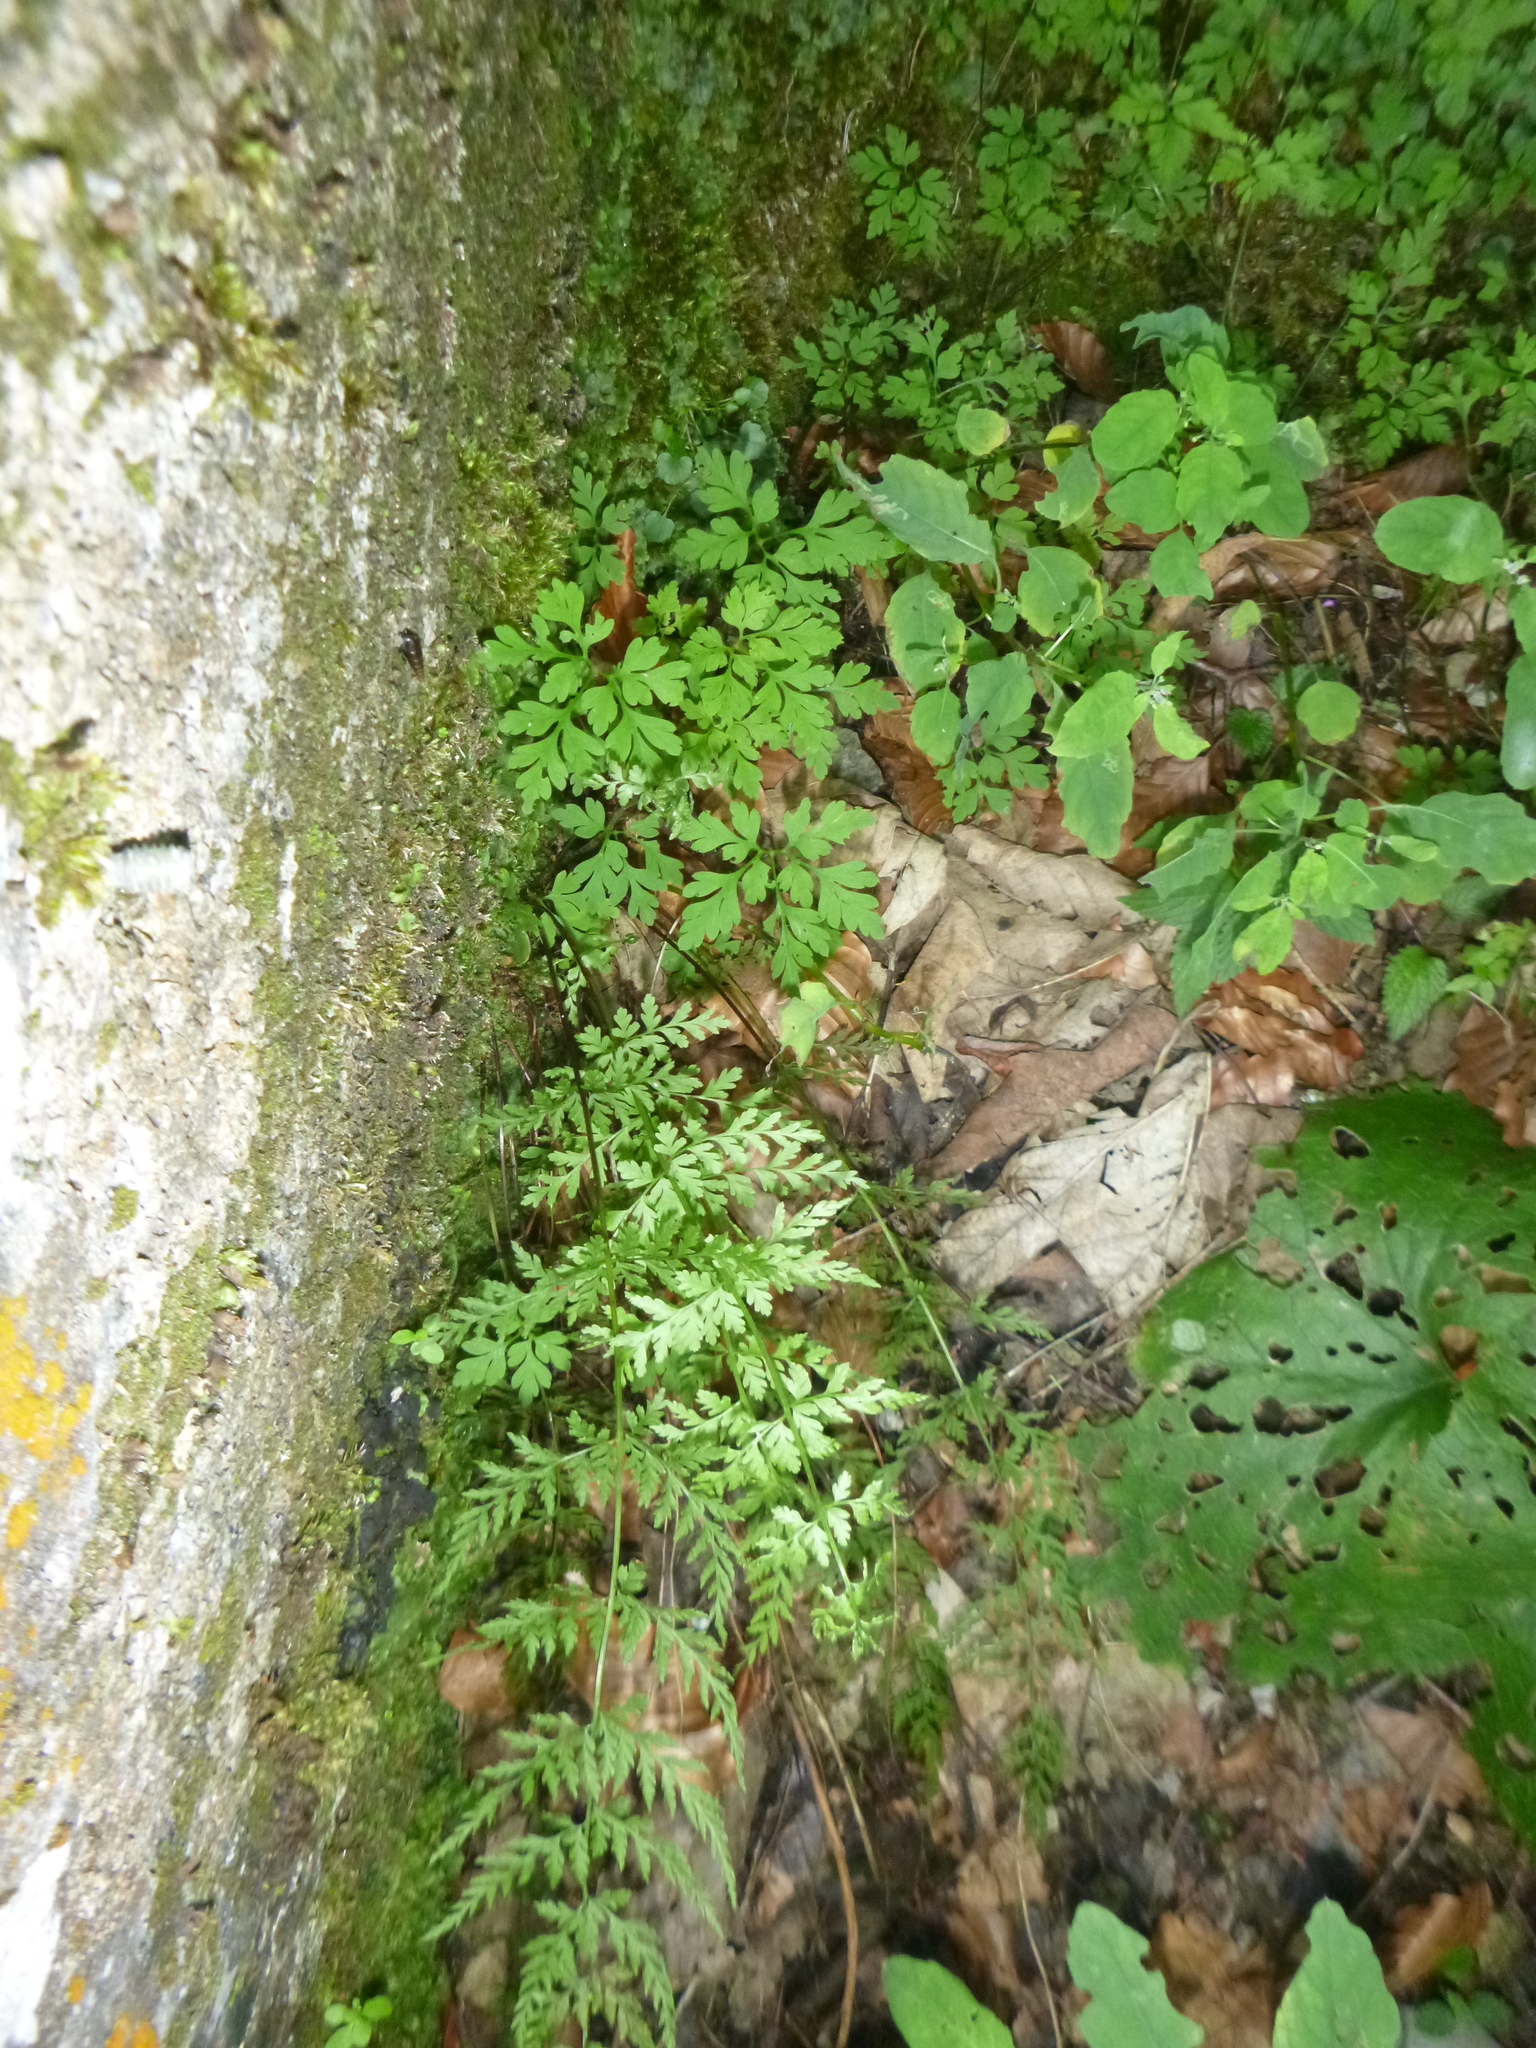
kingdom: Plantae
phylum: Tracheophyta
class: Polypodiopsida
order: Polypodiales
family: Cystopteridaceae
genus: Cystopteris
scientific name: Cystopteris fragilis
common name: Brittle bladder fern
